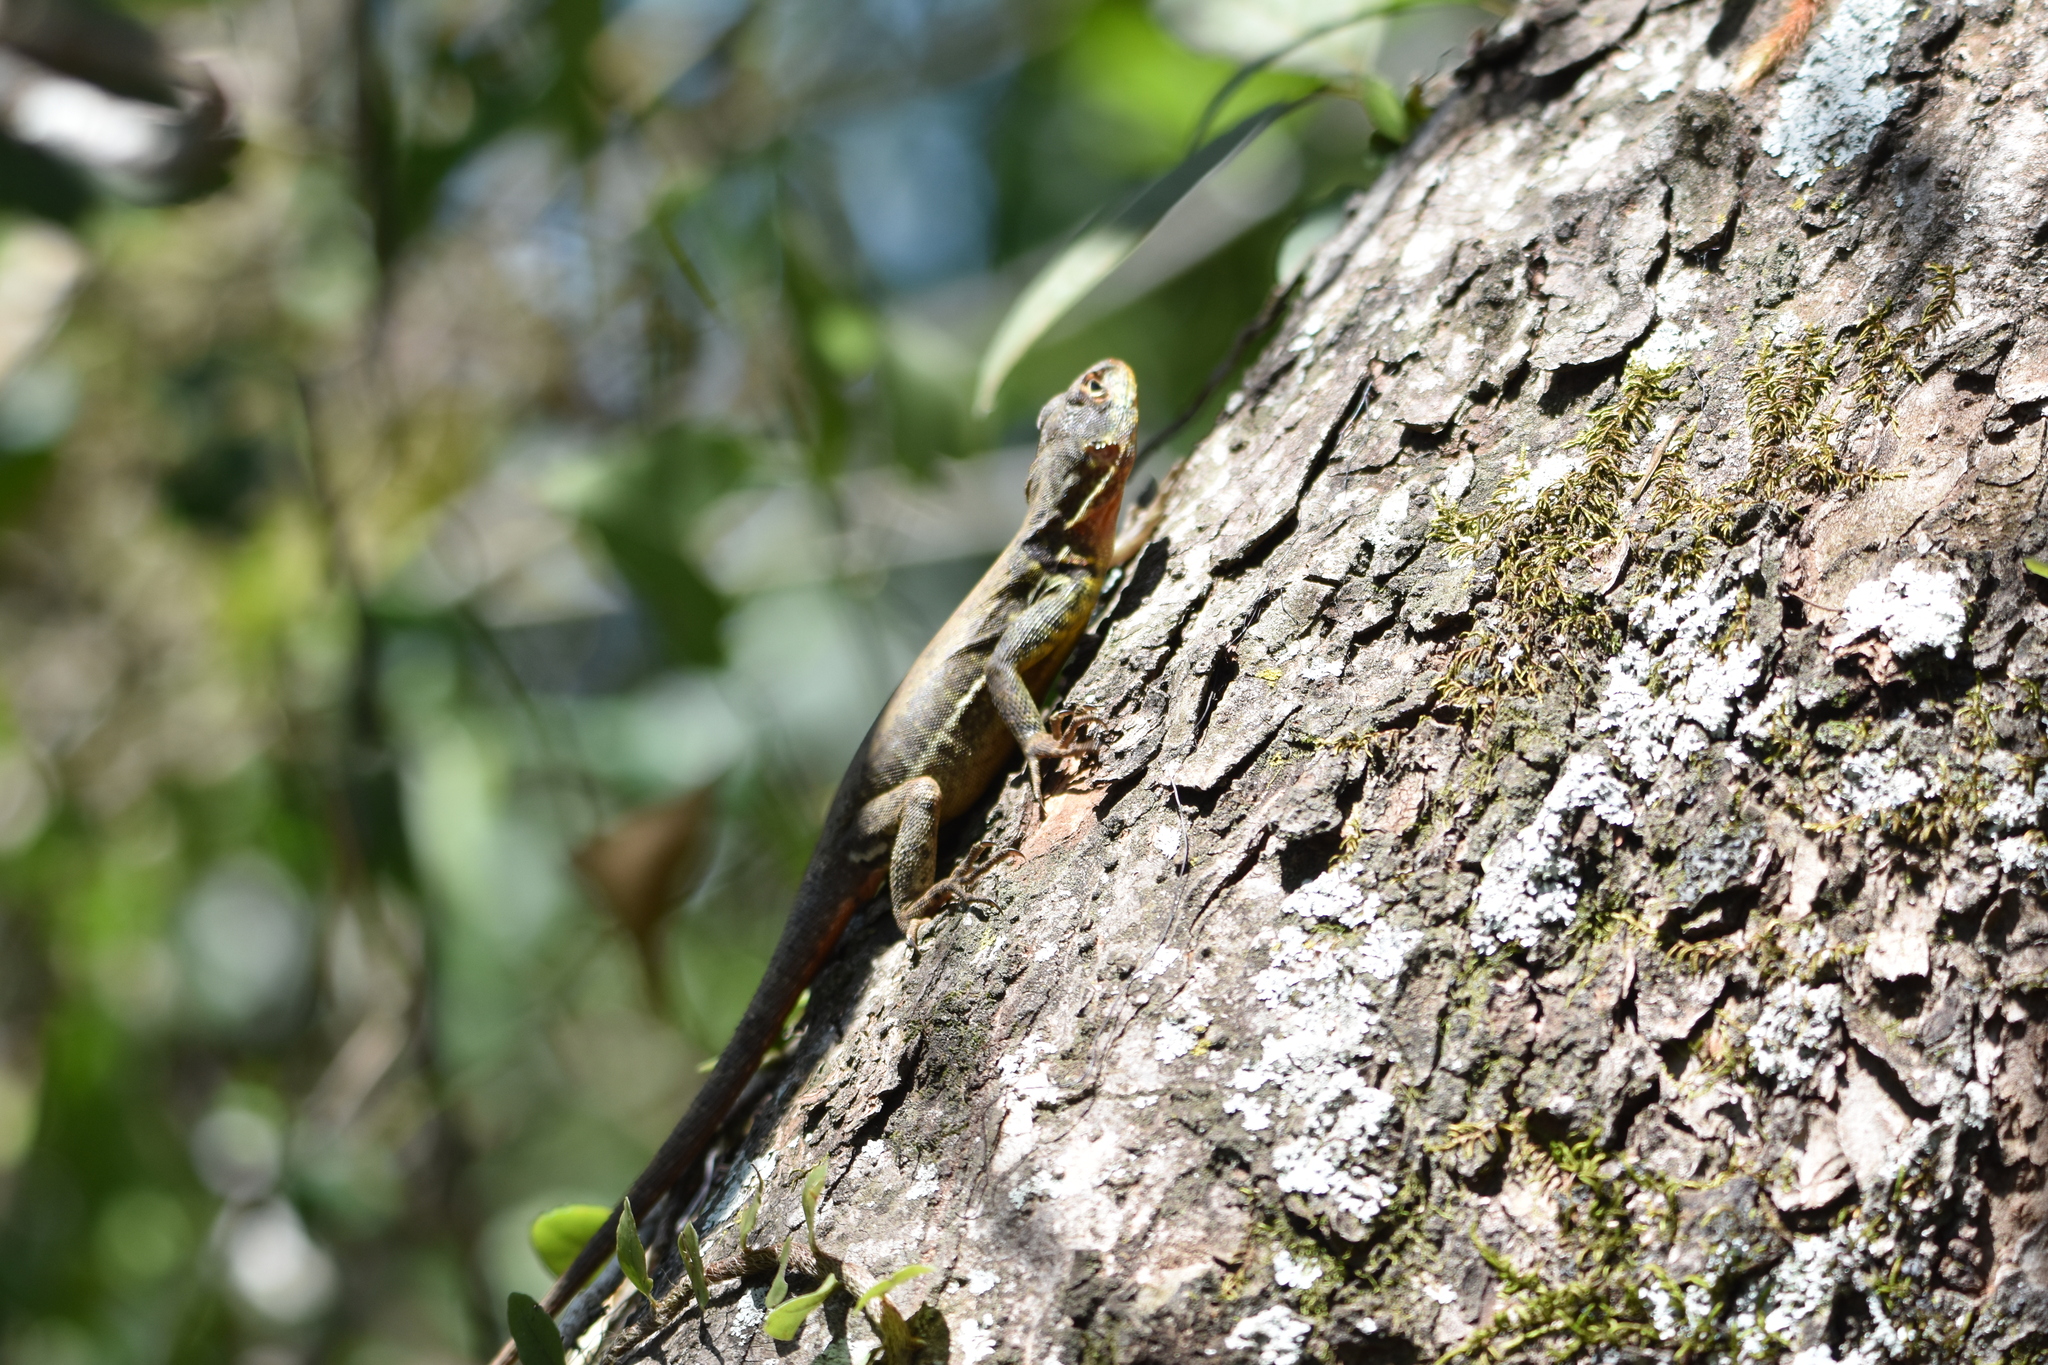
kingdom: Animalia
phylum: Chordata
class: Squamata
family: Tropiduridae
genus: Tropidurus
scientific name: Tropidurus catalanensis
